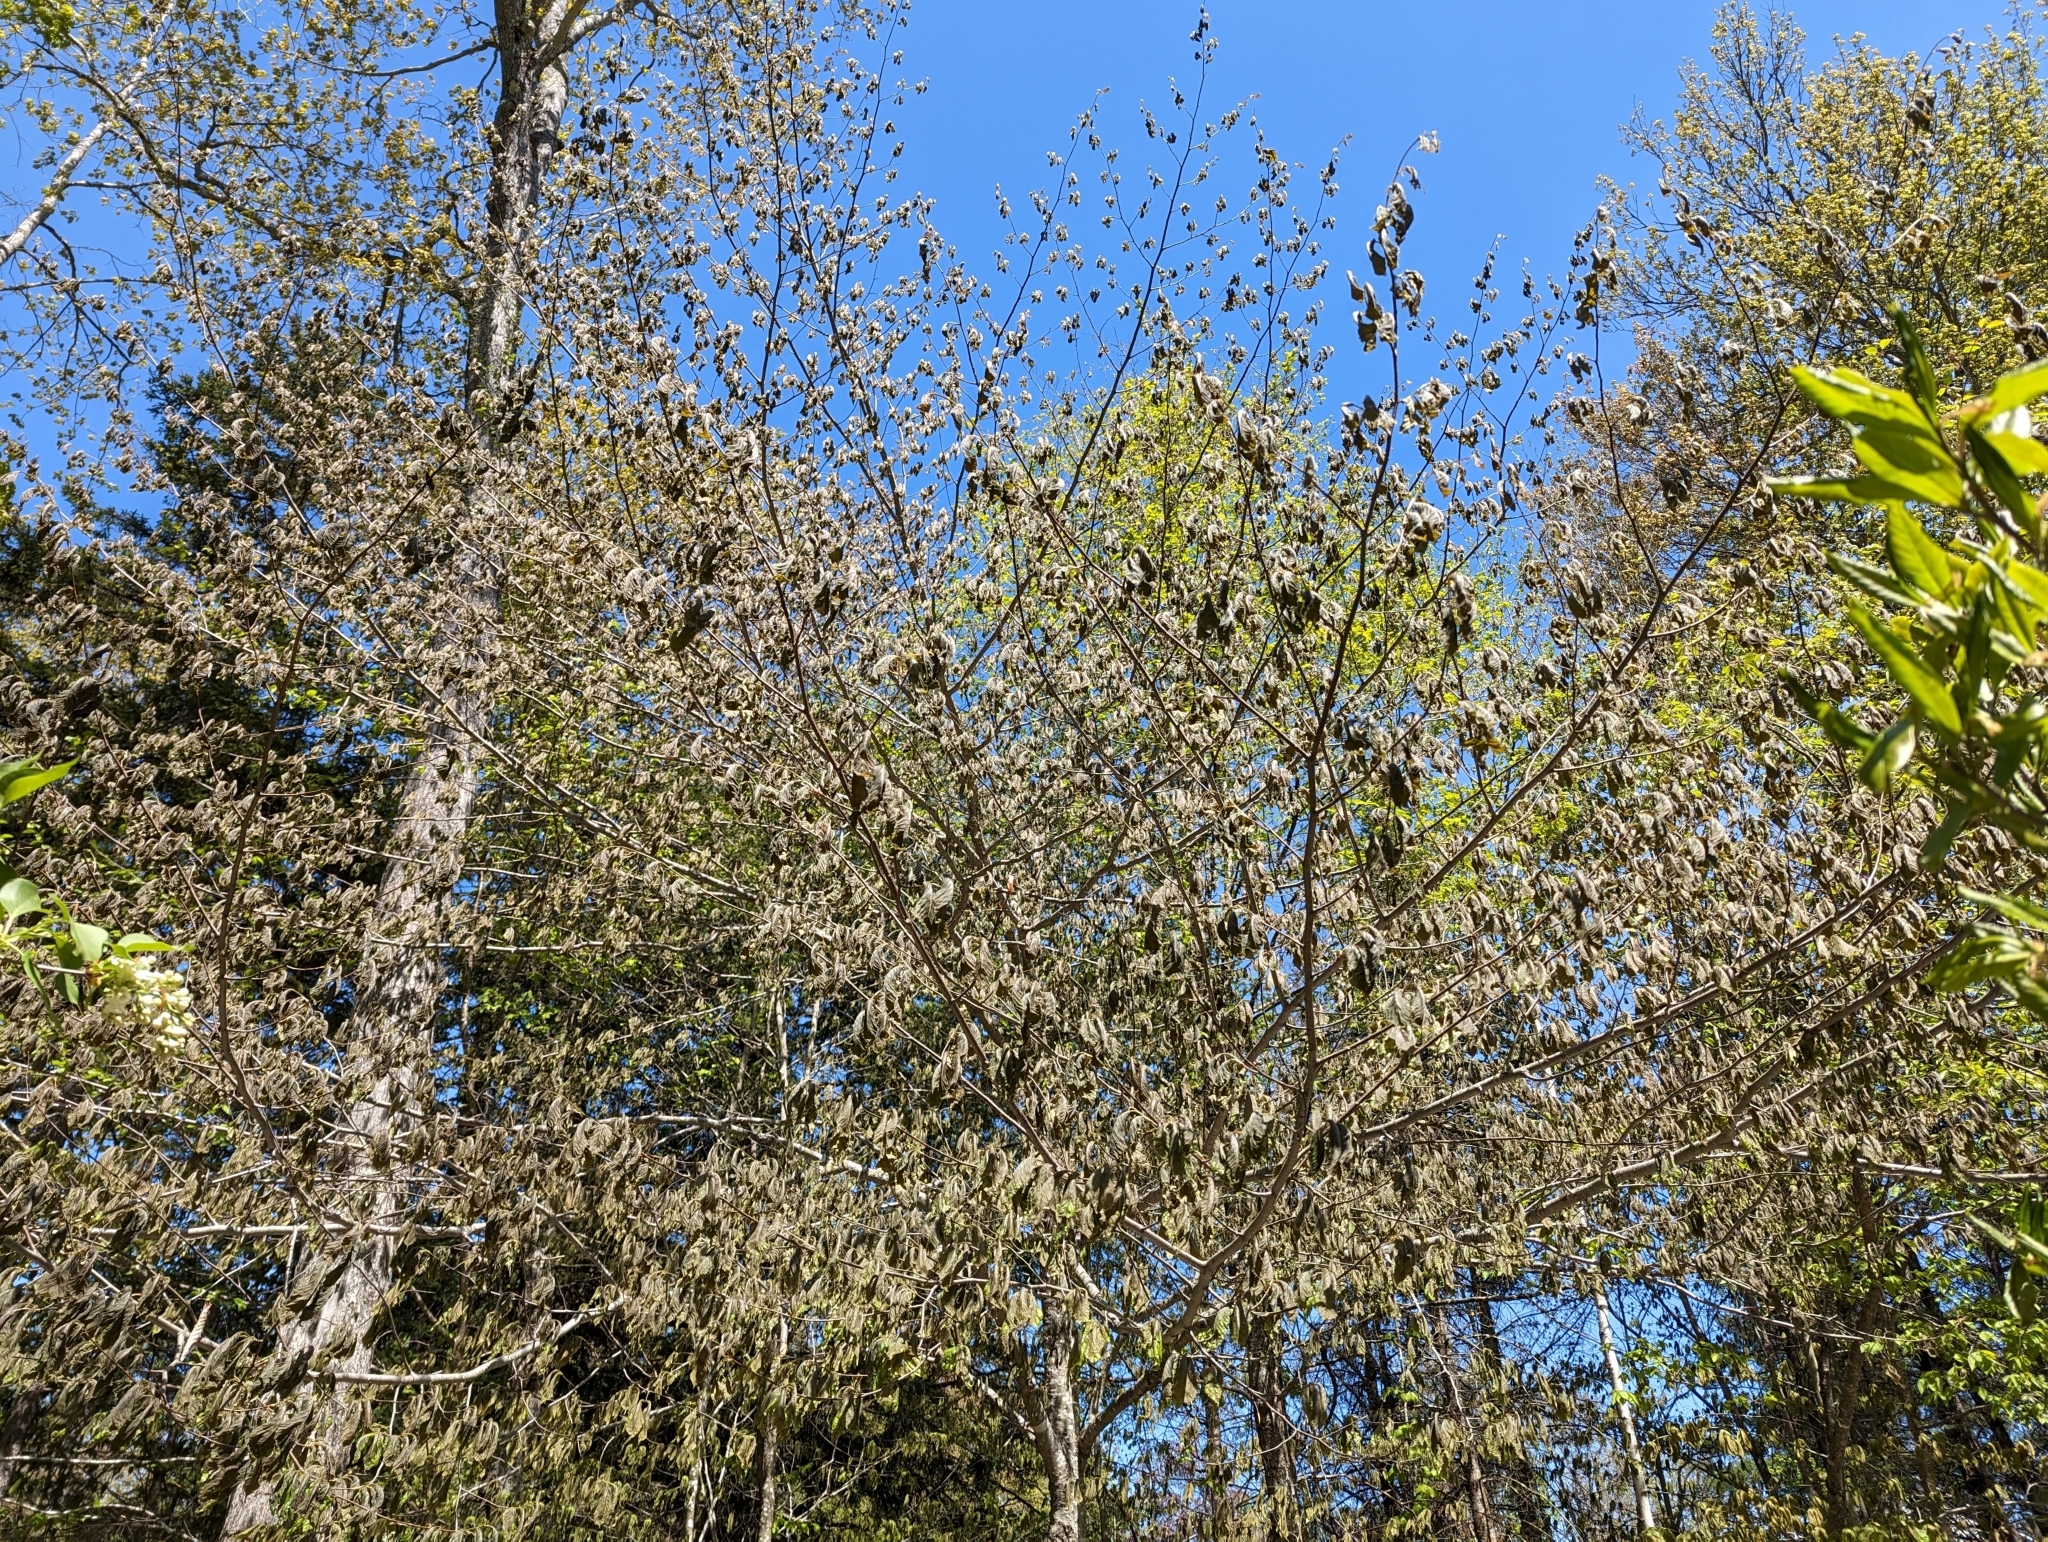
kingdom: Plantae
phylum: Tracheophyta
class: Magnoliopsida
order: Fagales
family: Fagaceae
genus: Fagus
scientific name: Fagus grandifolia
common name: American beech
